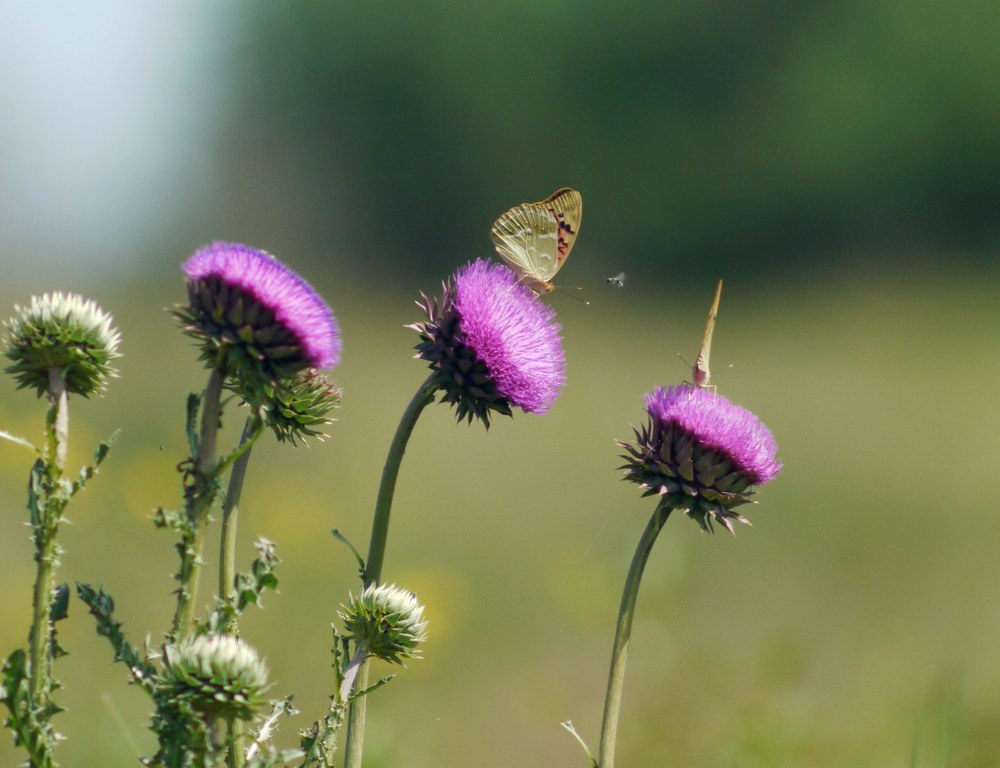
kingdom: Animalia
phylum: Arthropoda
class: Insecta
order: Lepidoptera
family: Nymphalidae
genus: Damora
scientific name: Damora pandora
